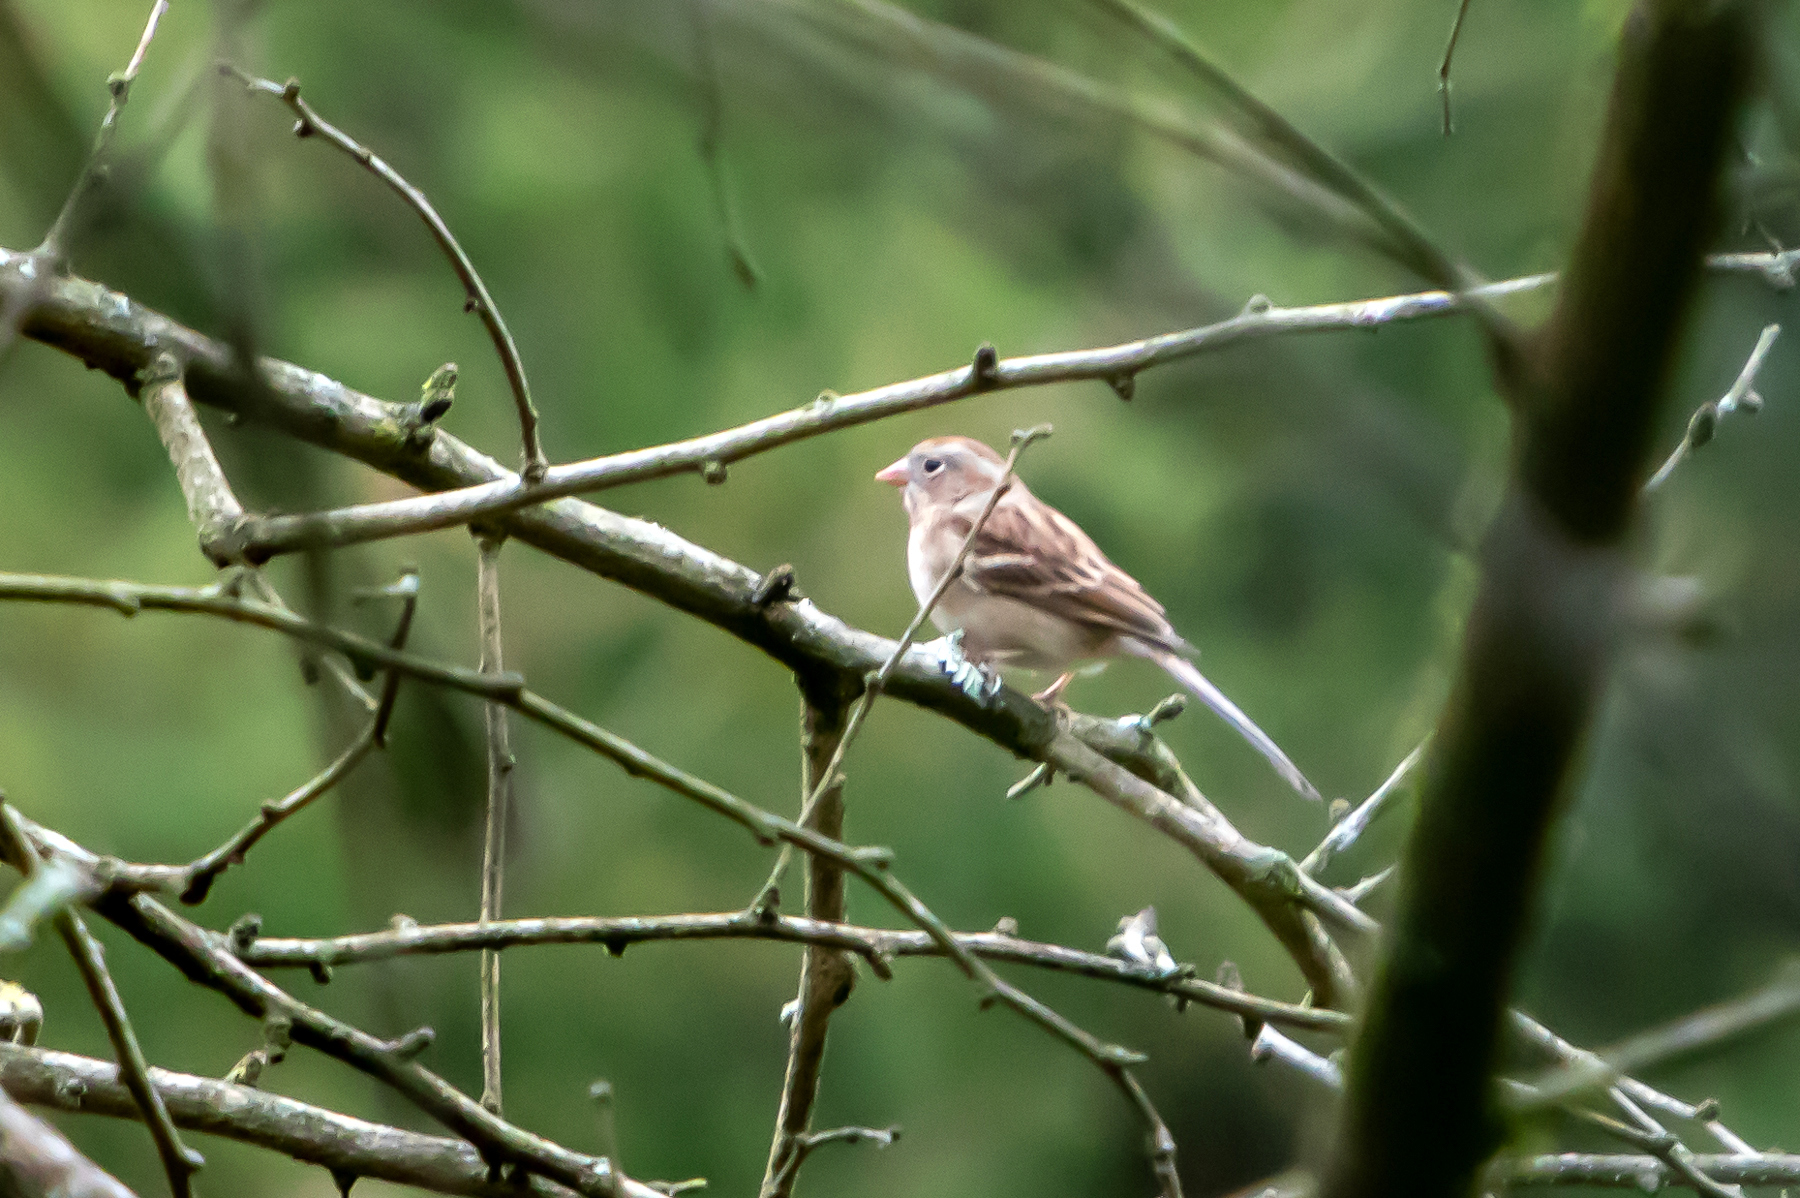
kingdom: Animalia
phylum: Chordata
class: Aves
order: Passeriformes
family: Passerellidae
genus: Spizella
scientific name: Spizella pusilla
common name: Field sparrow
